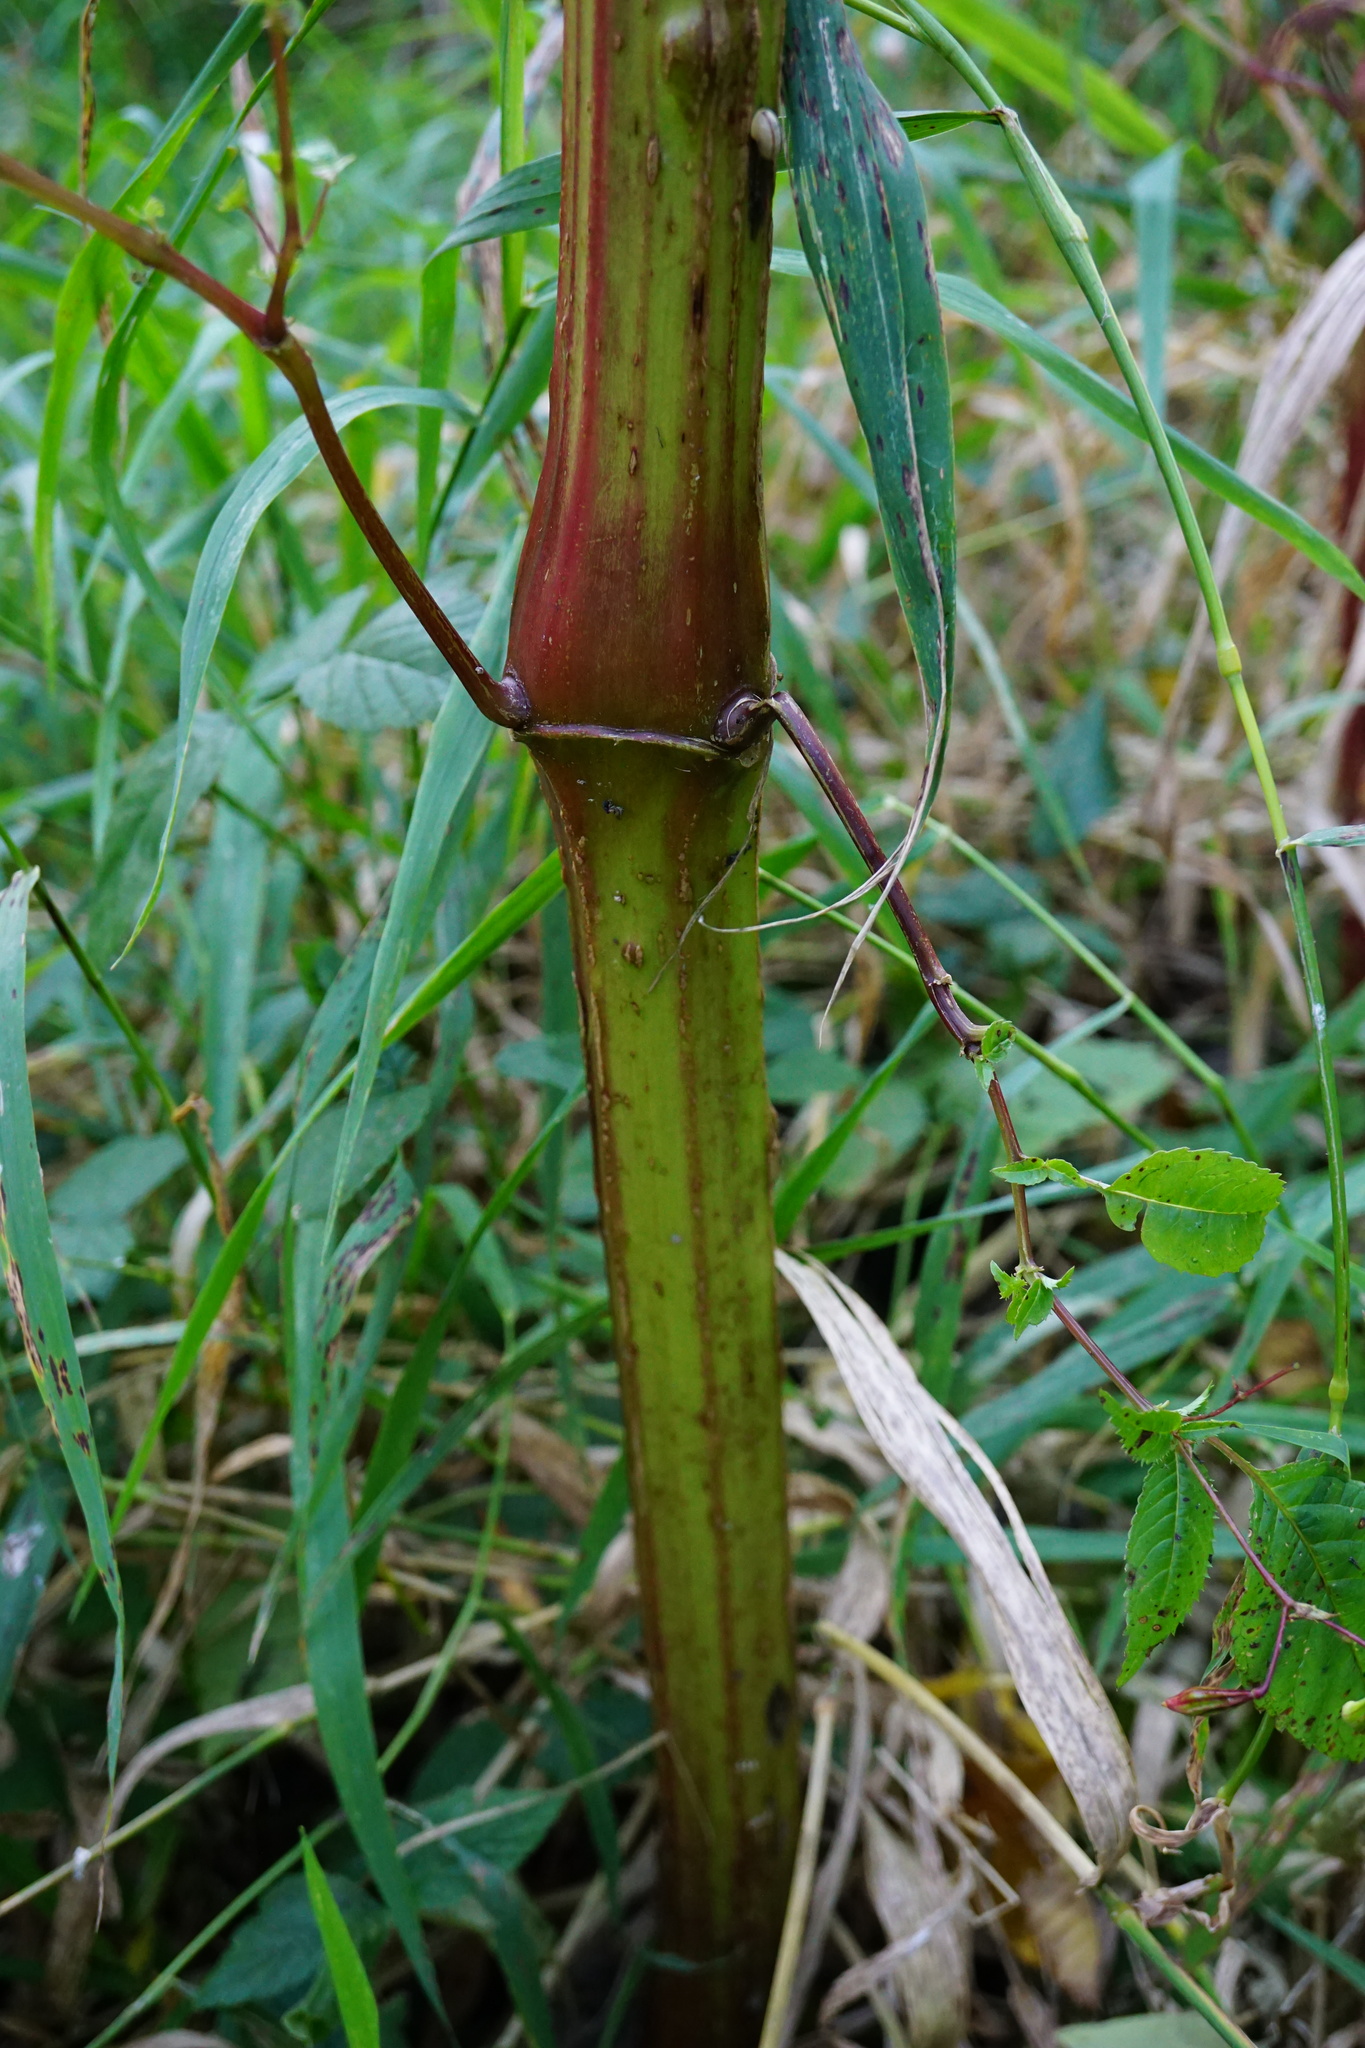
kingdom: Plantae
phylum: Tracheophyta
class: Magnoliopsida
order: Ericales
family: Balsaminaceae
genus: Impatiens
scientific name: Impatiens glandulifera
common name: Himalayan balsam
